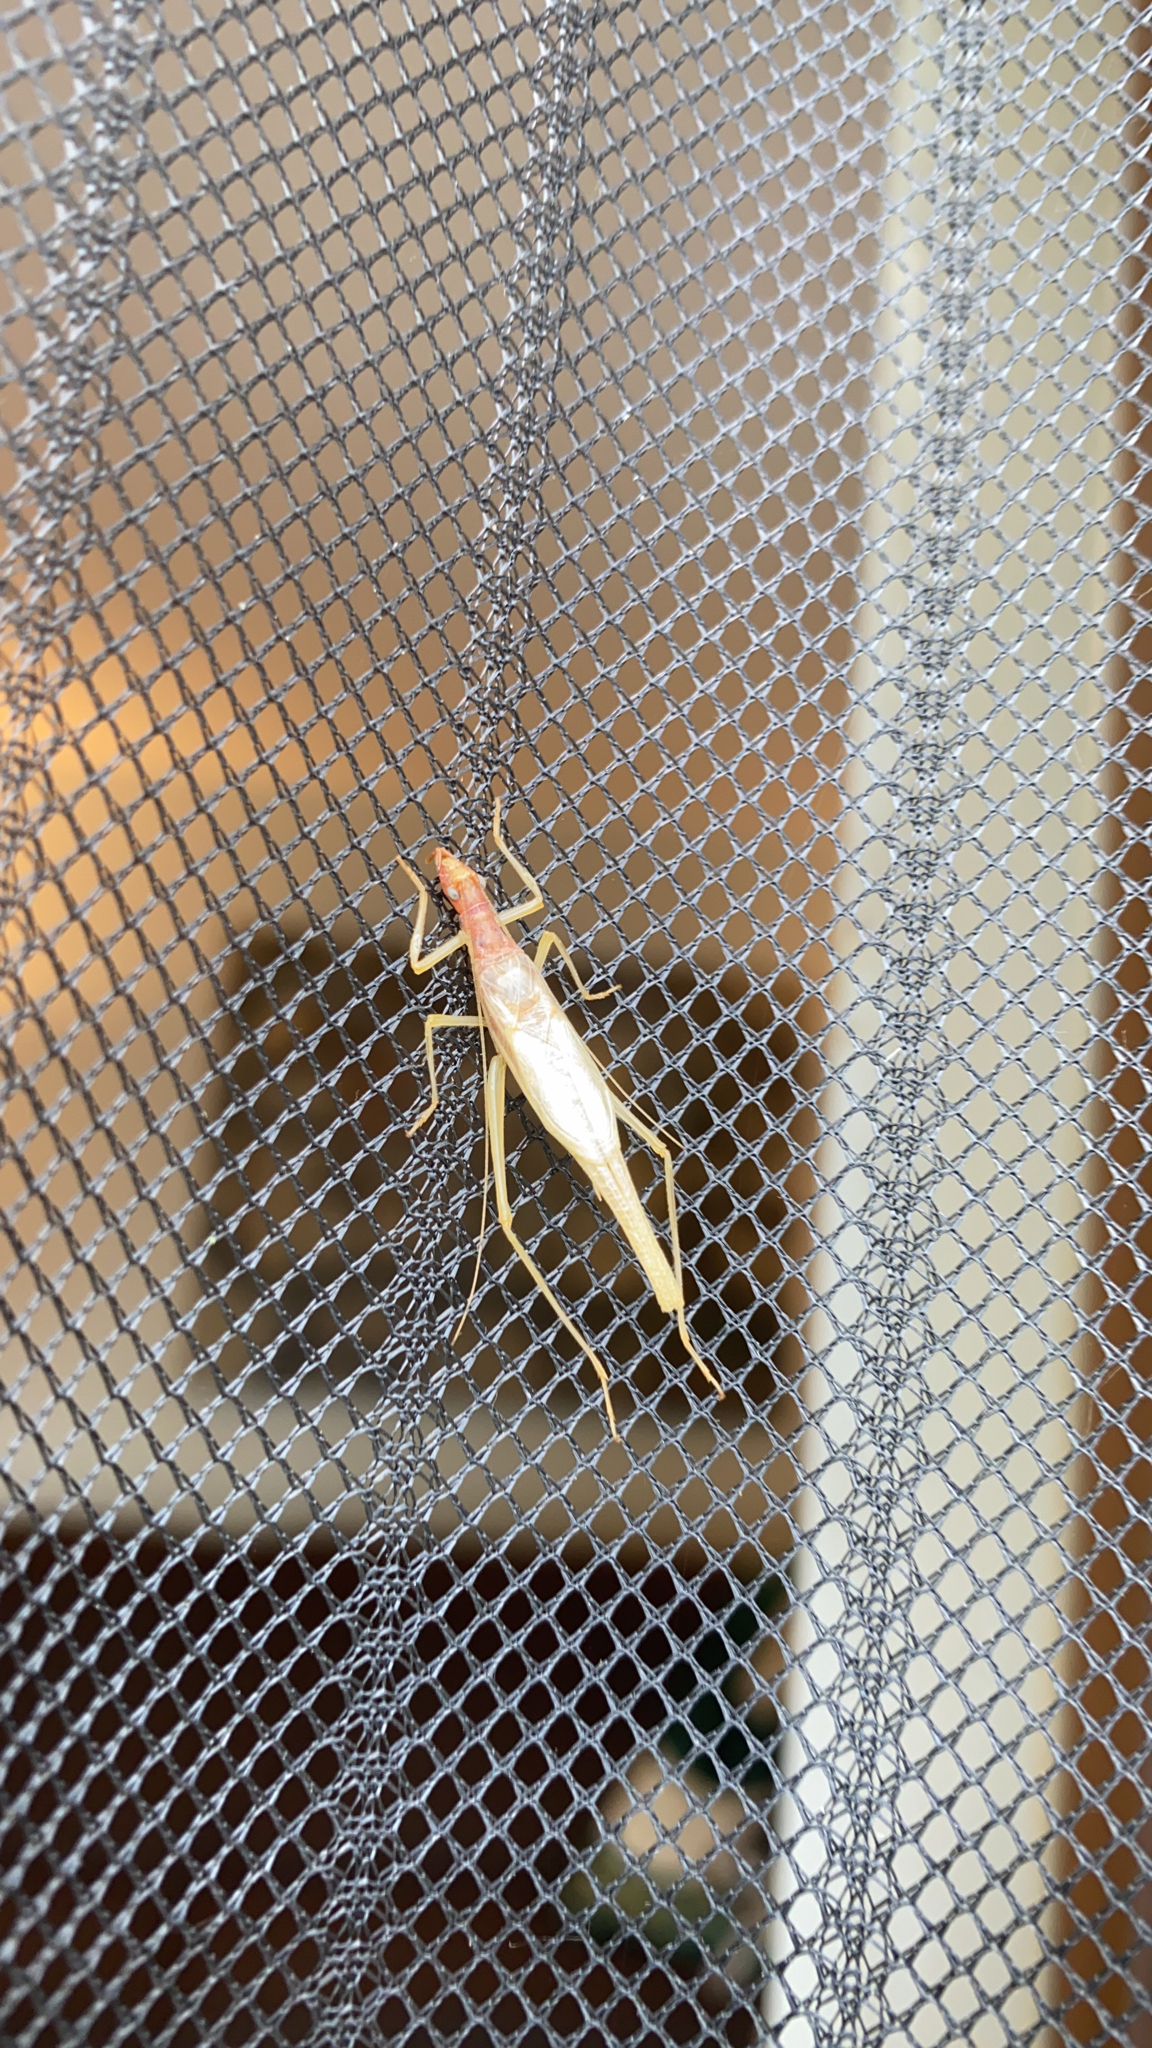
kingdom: Animalia
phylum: Arthropoda
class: Insecta
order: Orthoptera
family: Gryllidae
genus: Neoxabea
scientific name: Neoxabea bipunctata
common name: Two-spotted tree cricket
